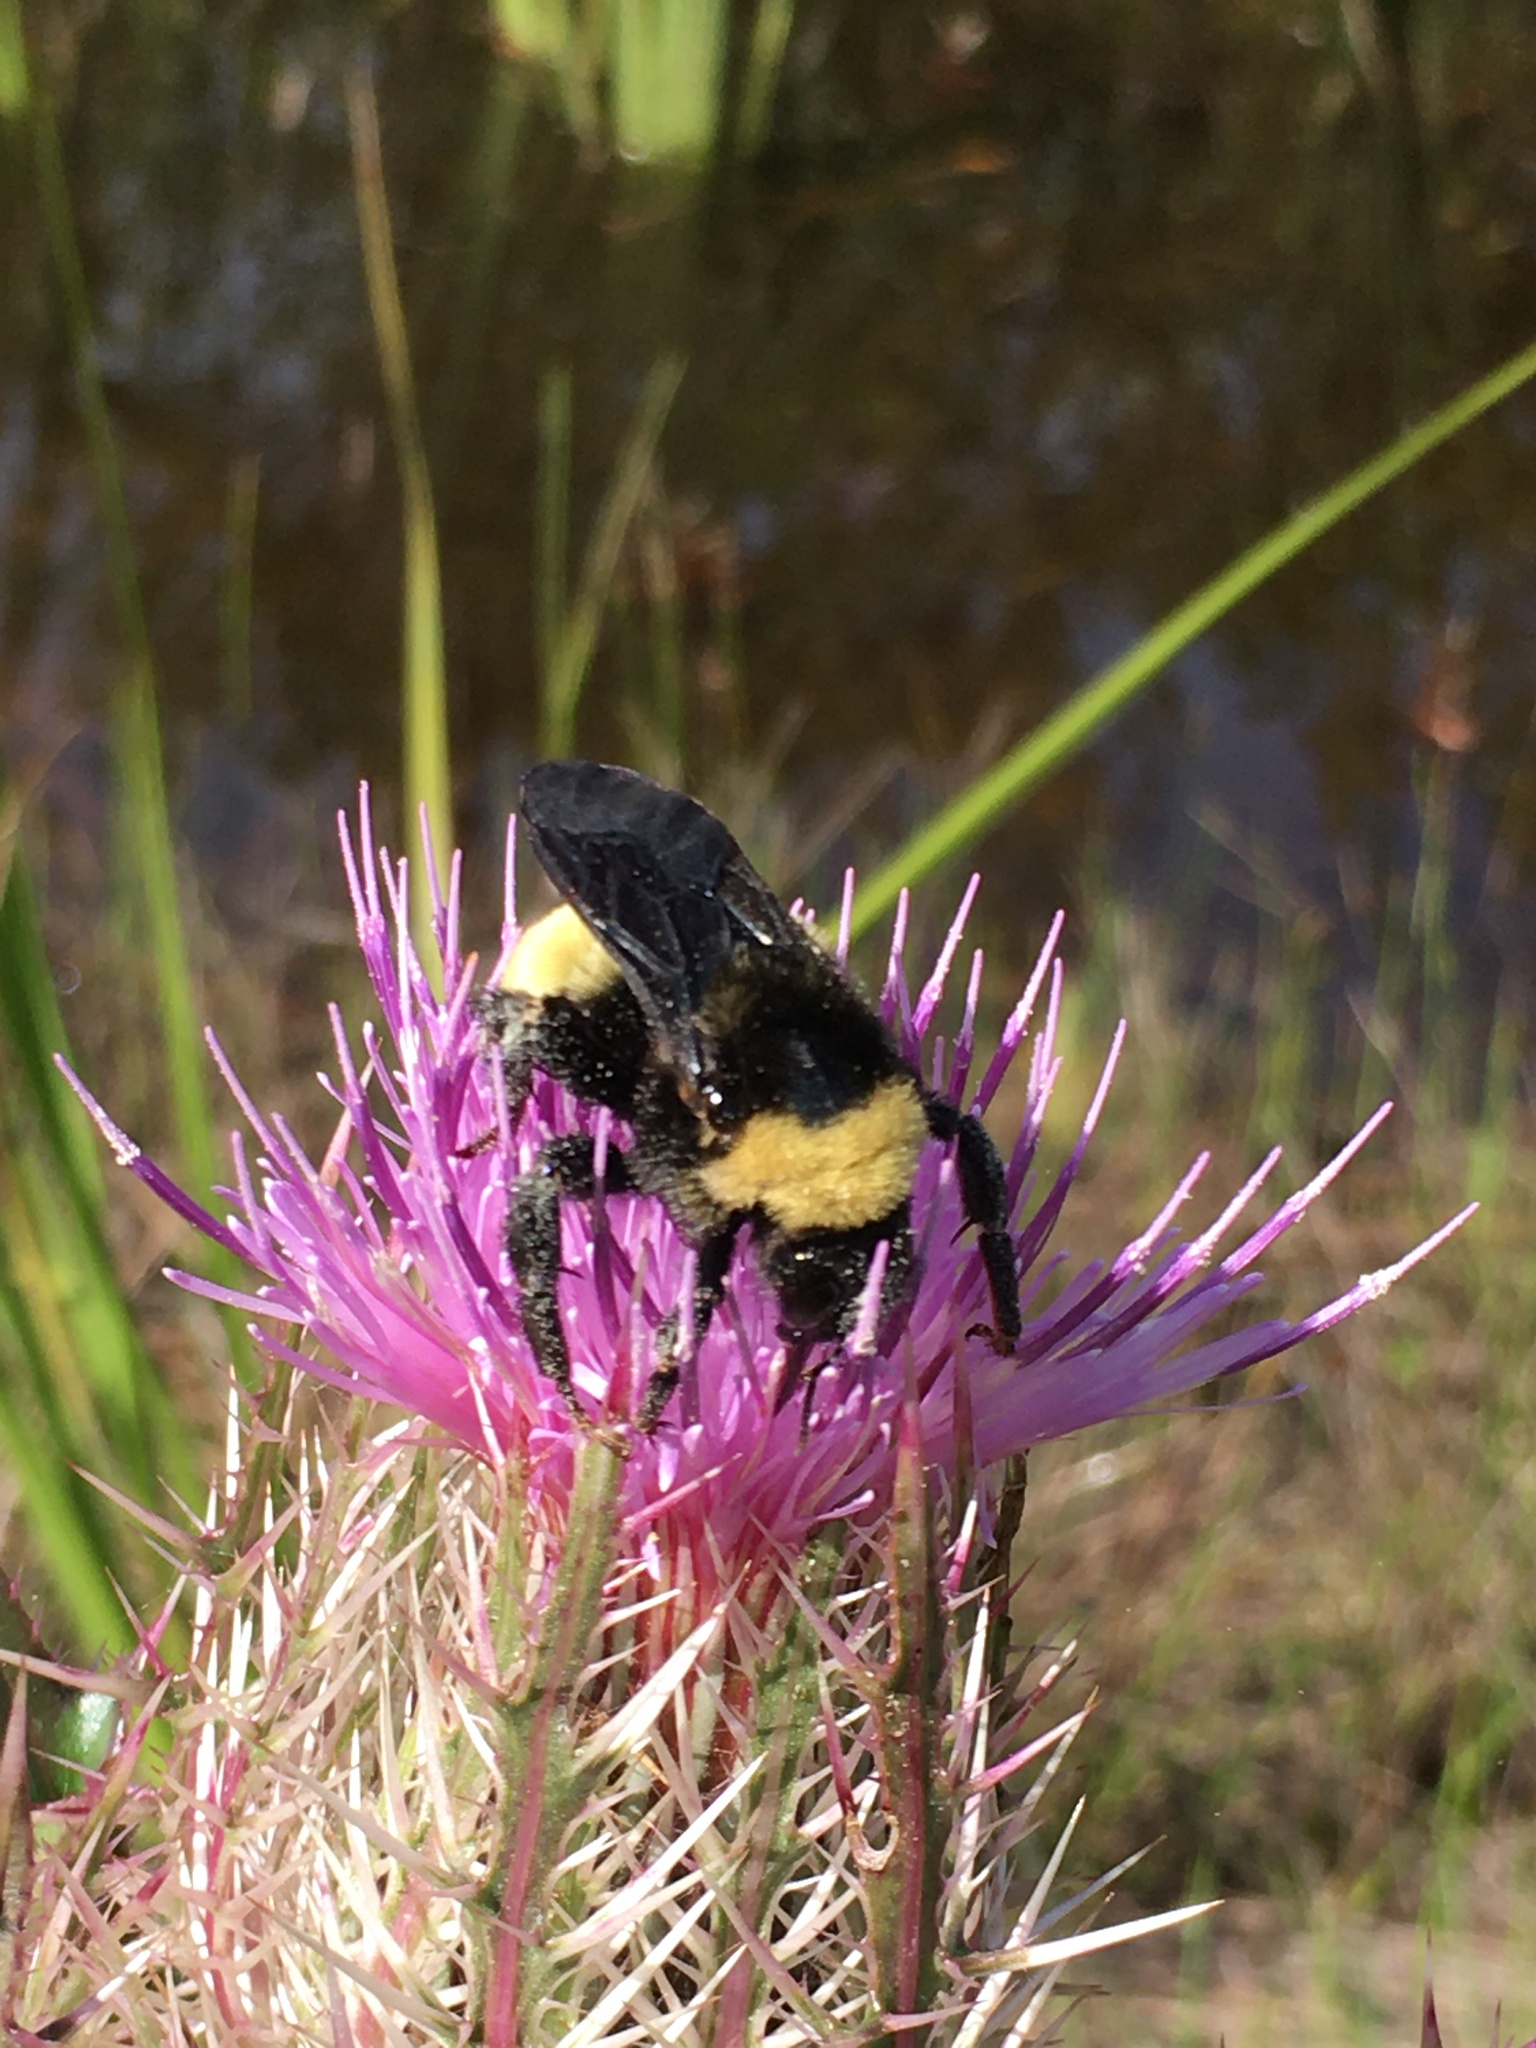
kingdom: Animalia
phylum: Arthropoda
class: Insecta
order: Hymenoptera
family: Apidae
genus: Bombus
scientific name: Bombus pensylvanicus
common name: Bumble bee
